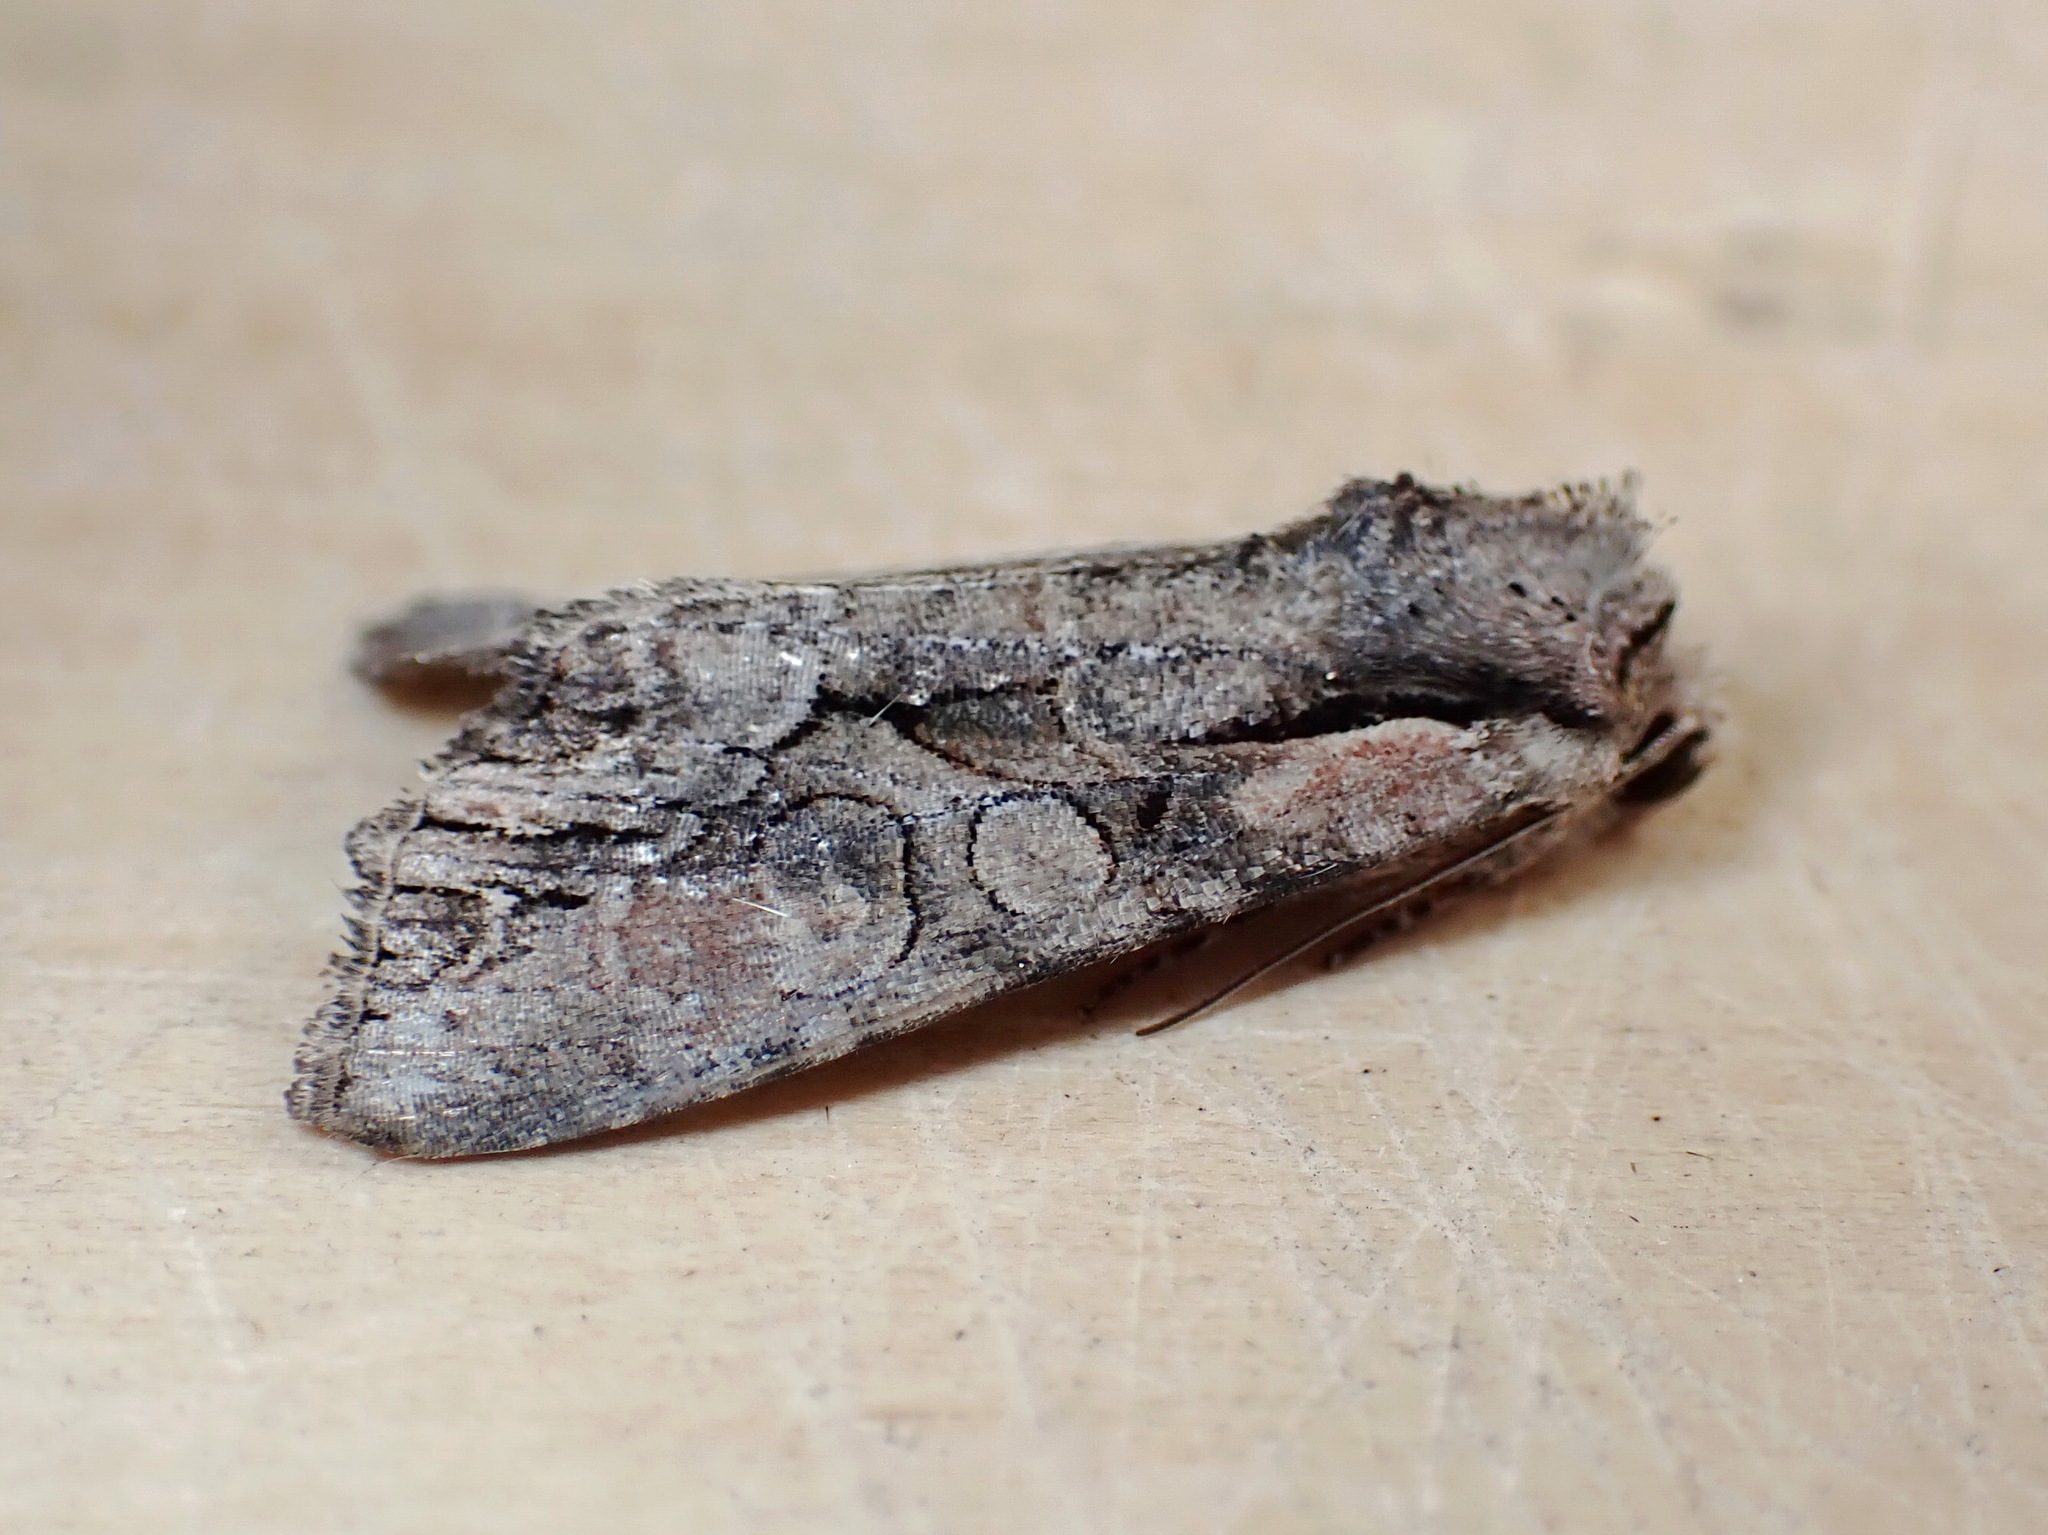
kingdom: Animalia
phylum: Arthropoda
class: Insecta
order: Lepidoptera
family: Noctuidae
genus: Lacanobia
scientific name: Lacanobia subjuncta
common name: Speckled cutworm moth
